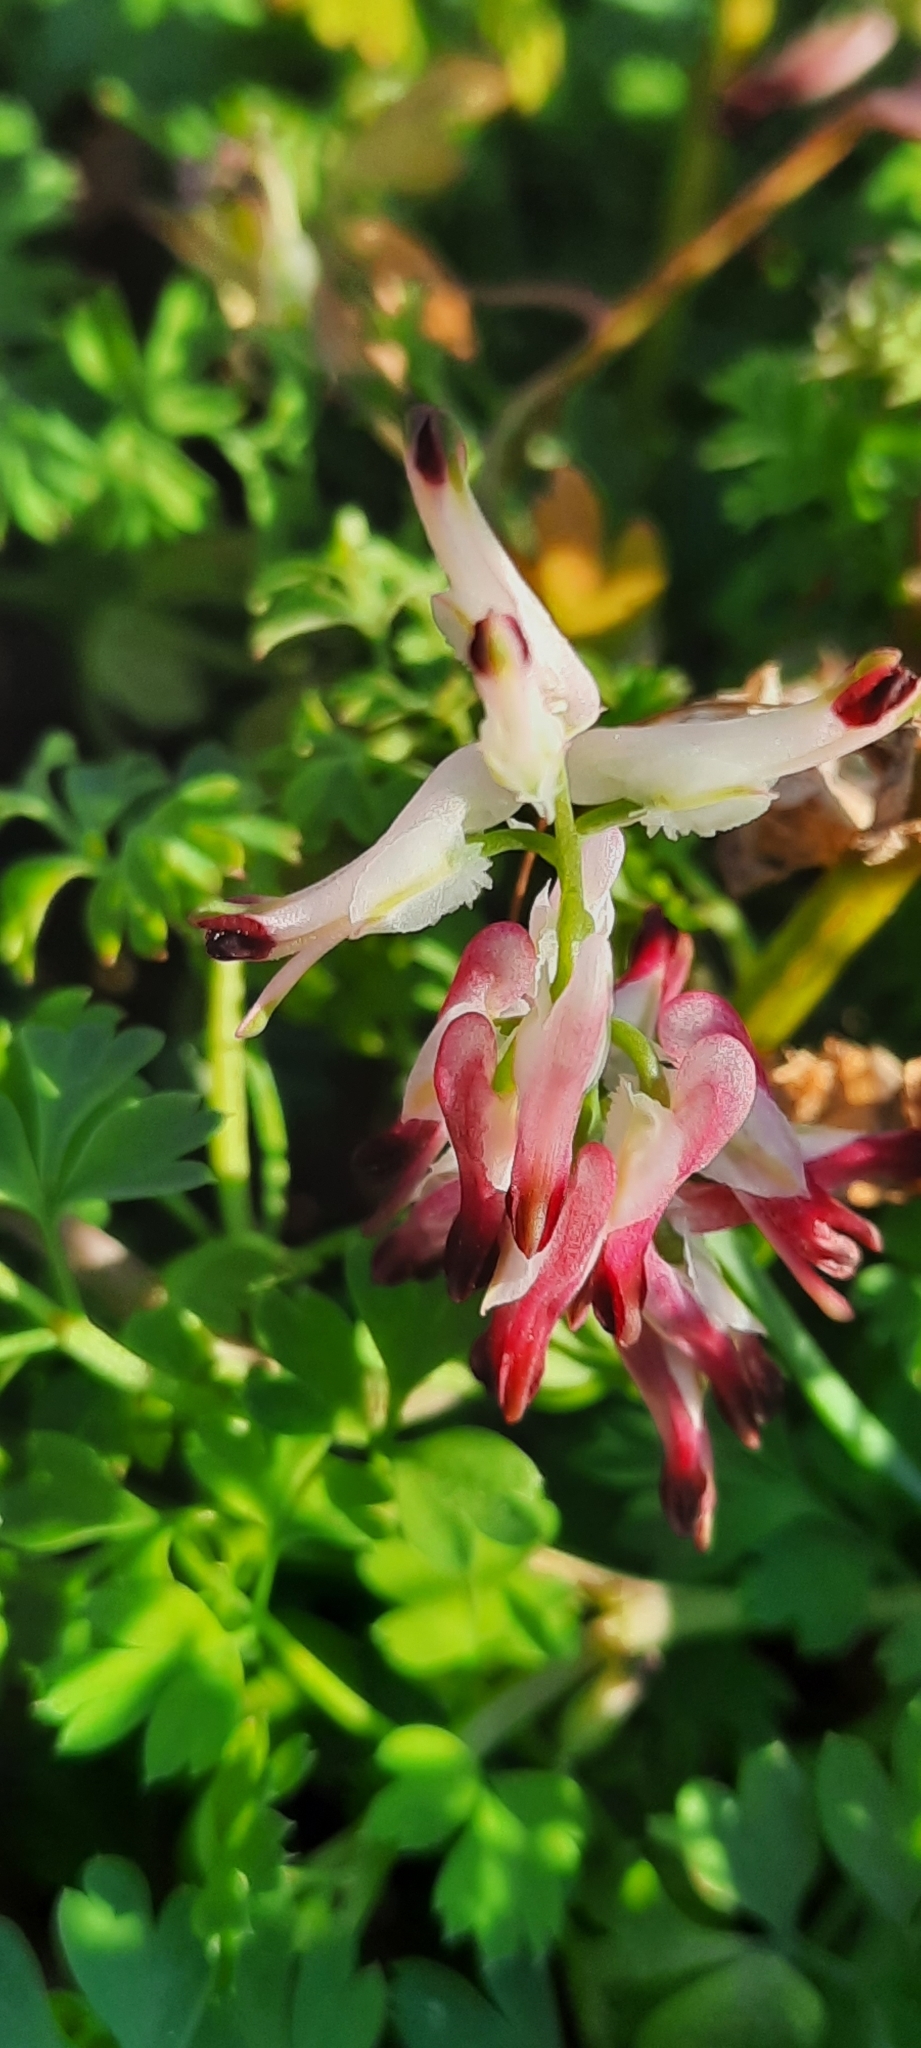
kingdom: Plantae
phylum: Tracheophyta
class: Magnoliopsida
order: Ranunculales
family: Papaveraceae
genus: Fumaria
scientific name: Fumaria capreolata
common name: White ramping-fumitory
